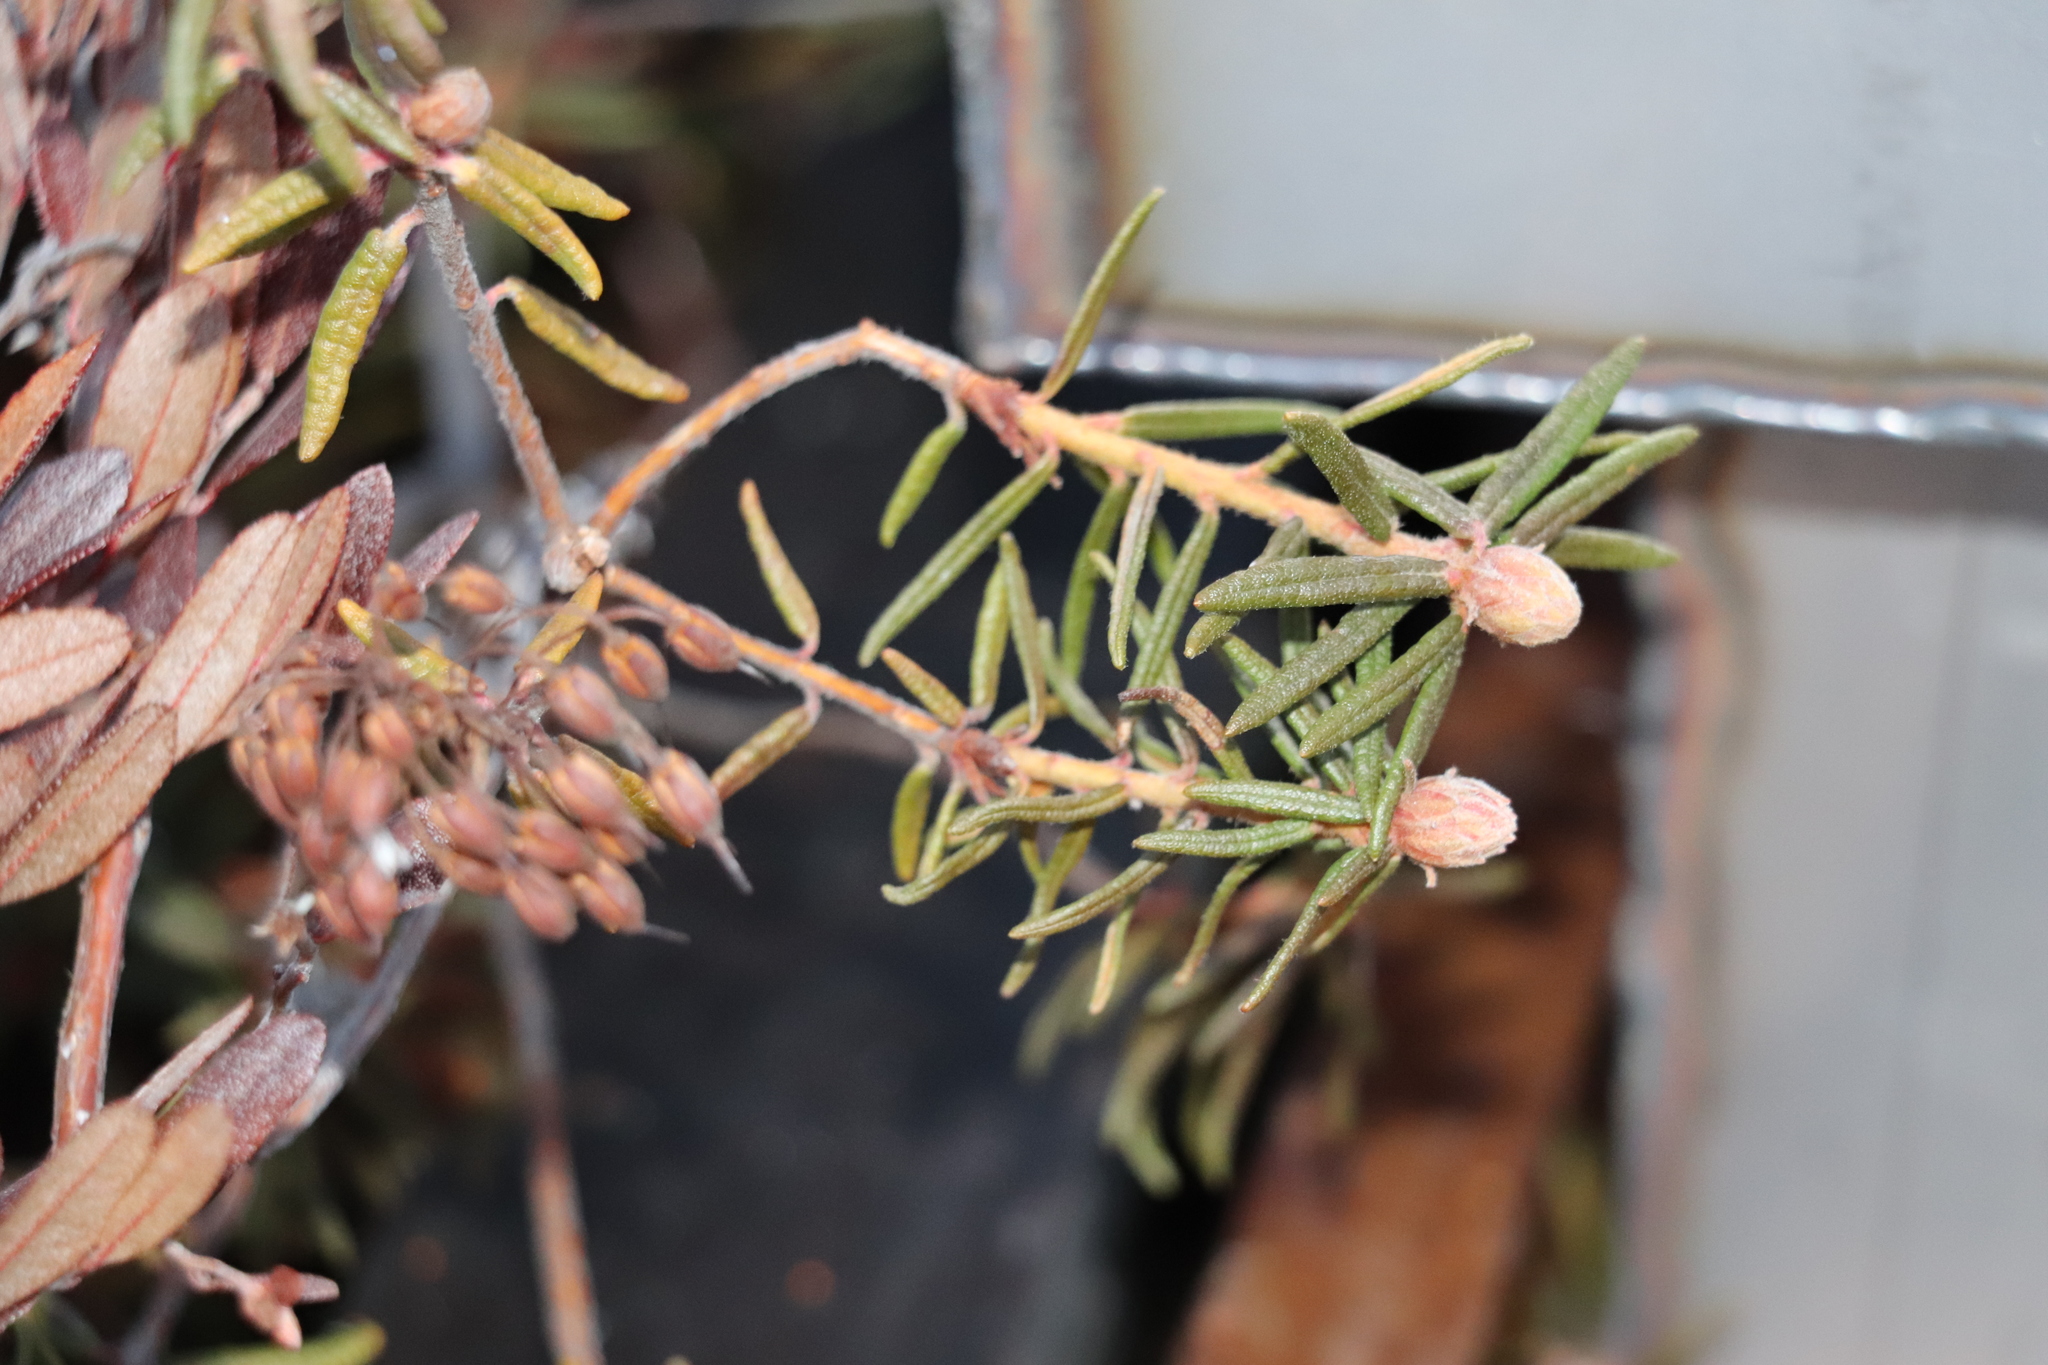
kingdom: Plantae
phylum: Tracheophyta
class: Magnoliopsida
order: Ericales
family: Ericaceae
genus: Rhododendron
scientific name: Rhododendron tomentosum
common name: Marsh labrador tea
